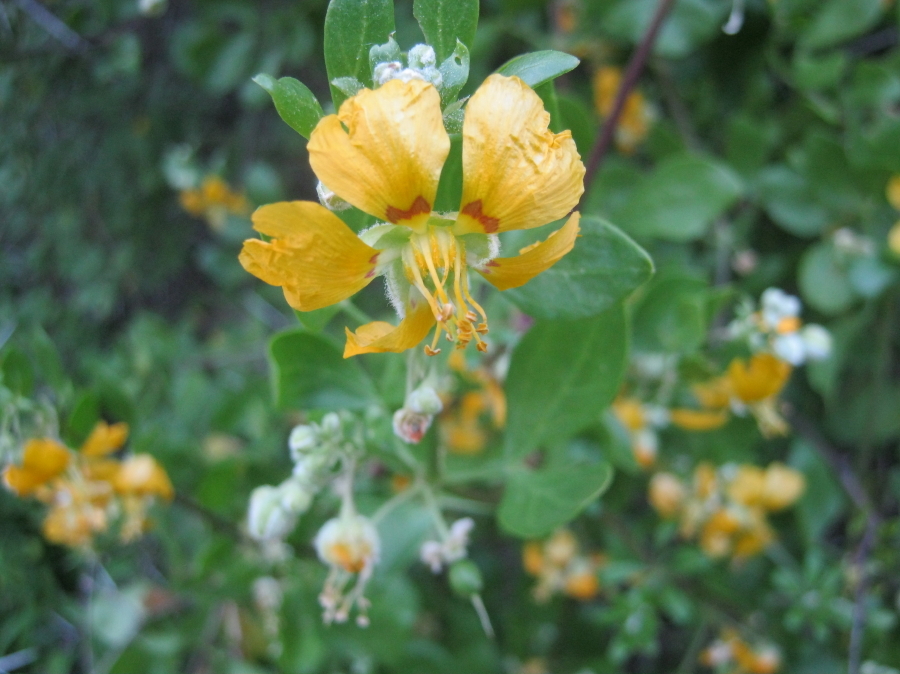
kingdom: Plantae
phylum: Tracheophyta
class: Magnoliopsida
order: Zygophyllales
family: Zygophyllaceae
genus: Roepera
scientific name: Roepera foetida
